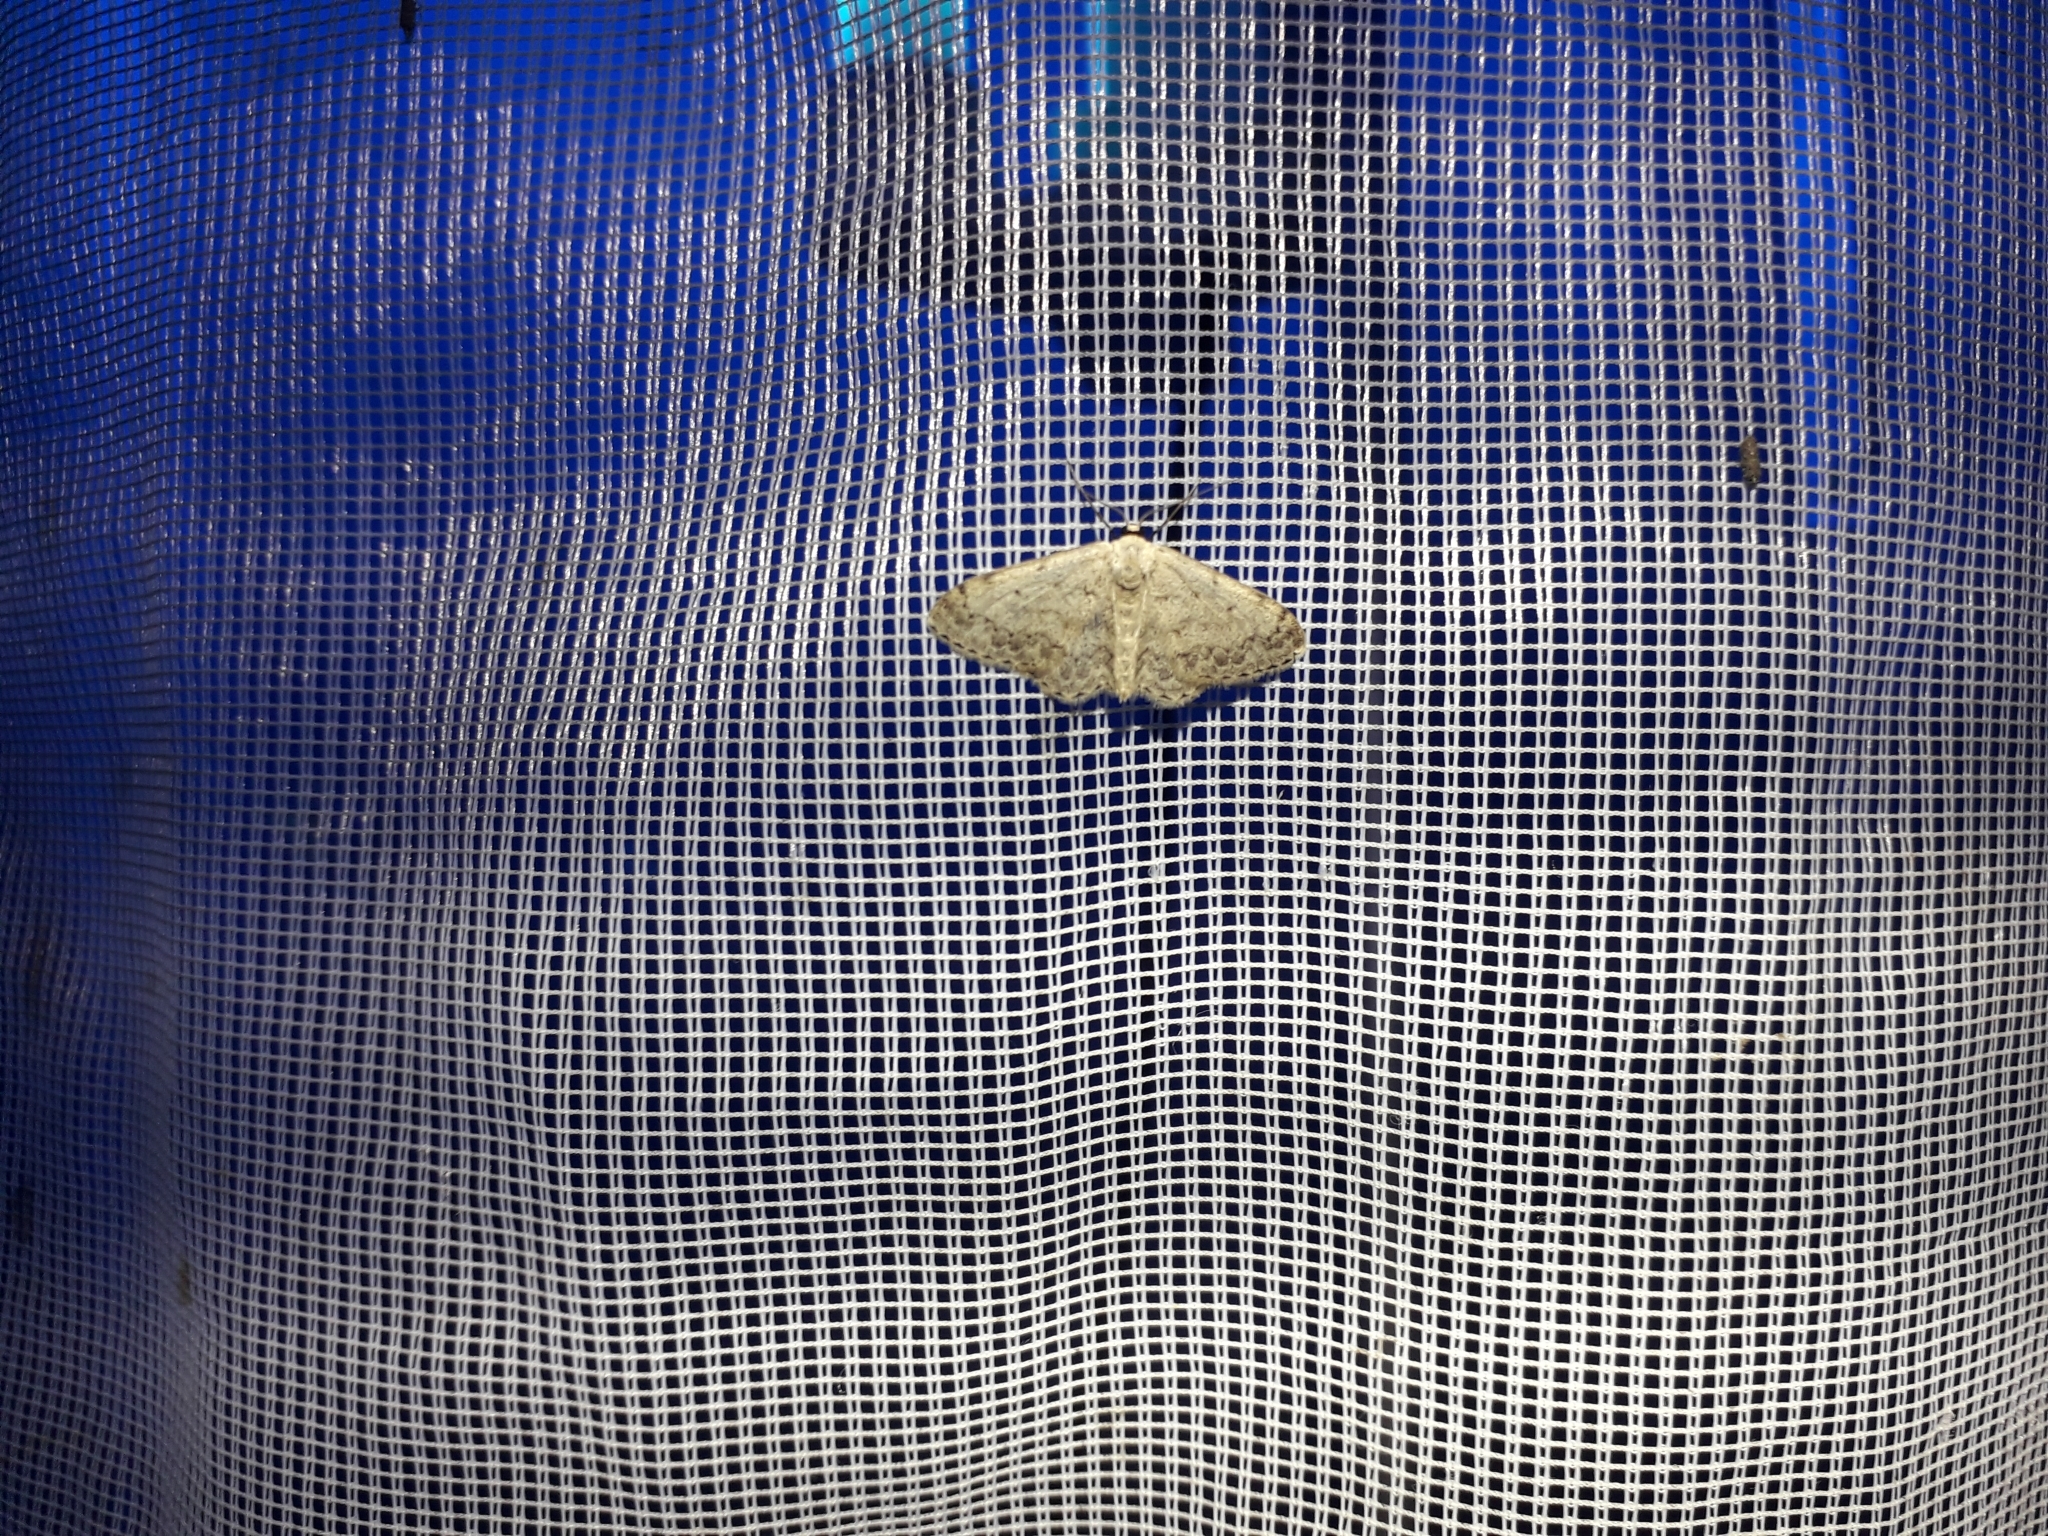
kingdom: Animalia
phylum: Arthropoda
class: Insecta
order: Lepidoptera
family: Geometridae
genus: Scopula
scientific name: Scopula marginepunctata
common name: Mullein wave
